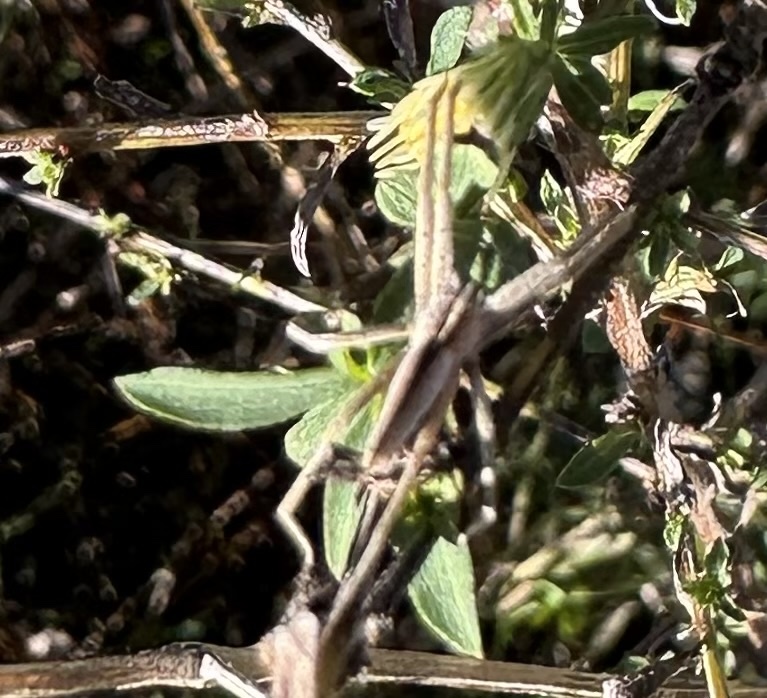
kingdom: Animalia
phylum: Arthropoda
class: Arachnida
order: Araneae
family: Pisauridae
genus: Pisaurina
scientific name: Pisaurina dubia
